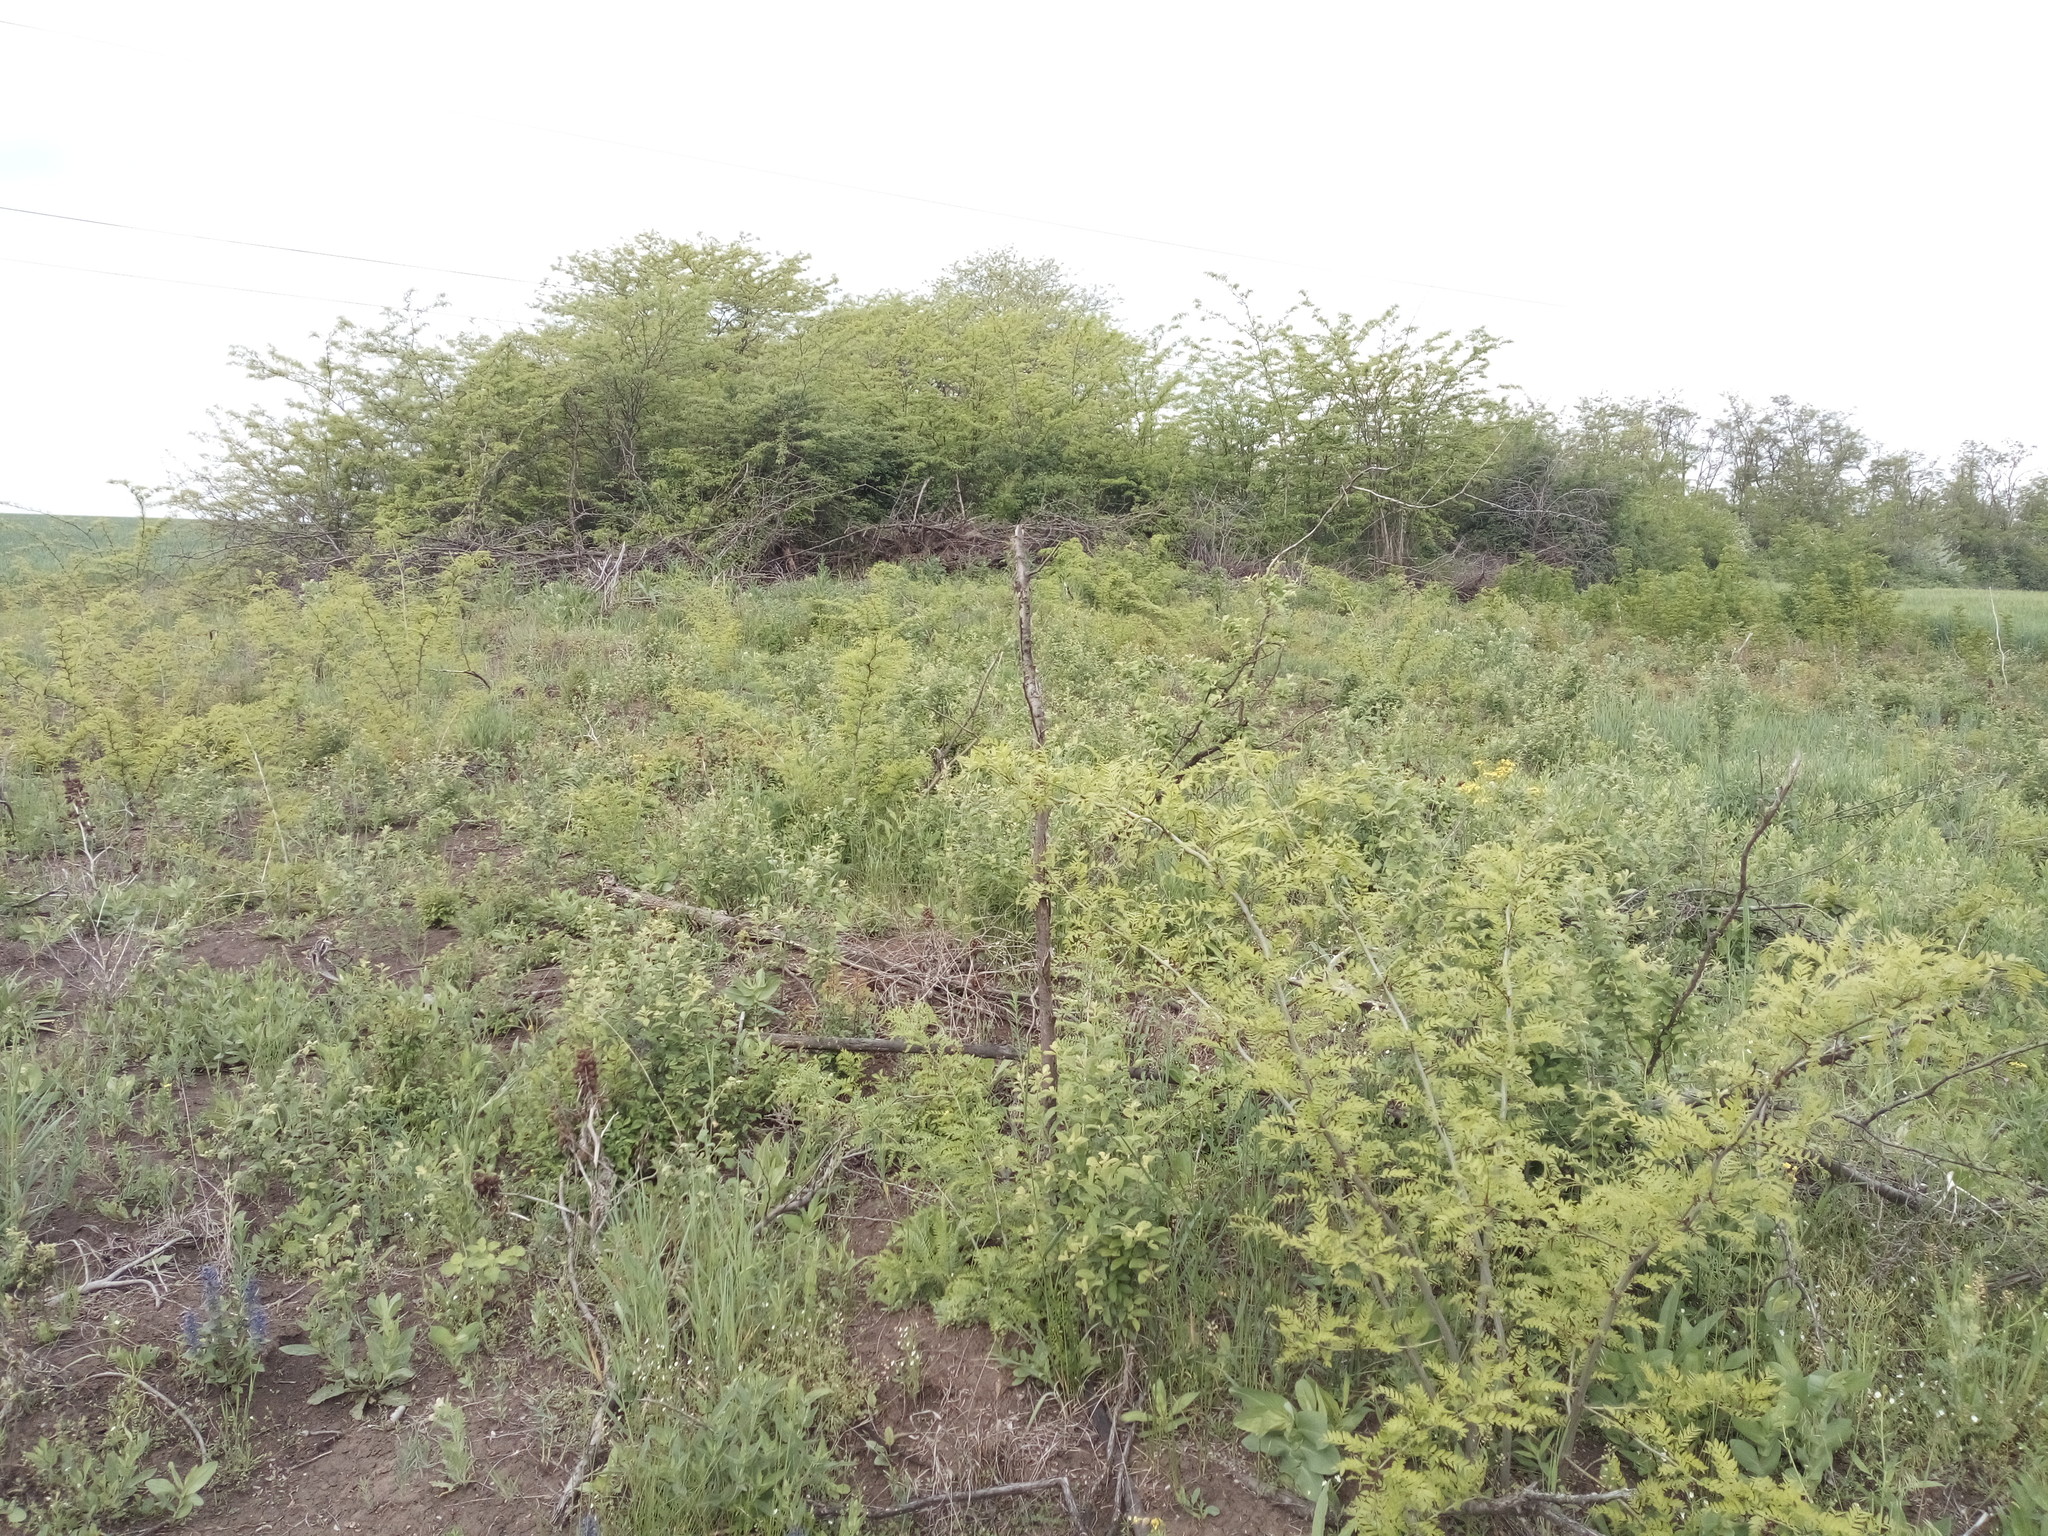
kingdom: Plantae
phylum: Tracheophyta
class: Magnoliopsida
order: Fabales
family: Fabaceae
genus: Gleditsia
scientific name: Gleditsia triacanthos
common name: Common honeylocust
